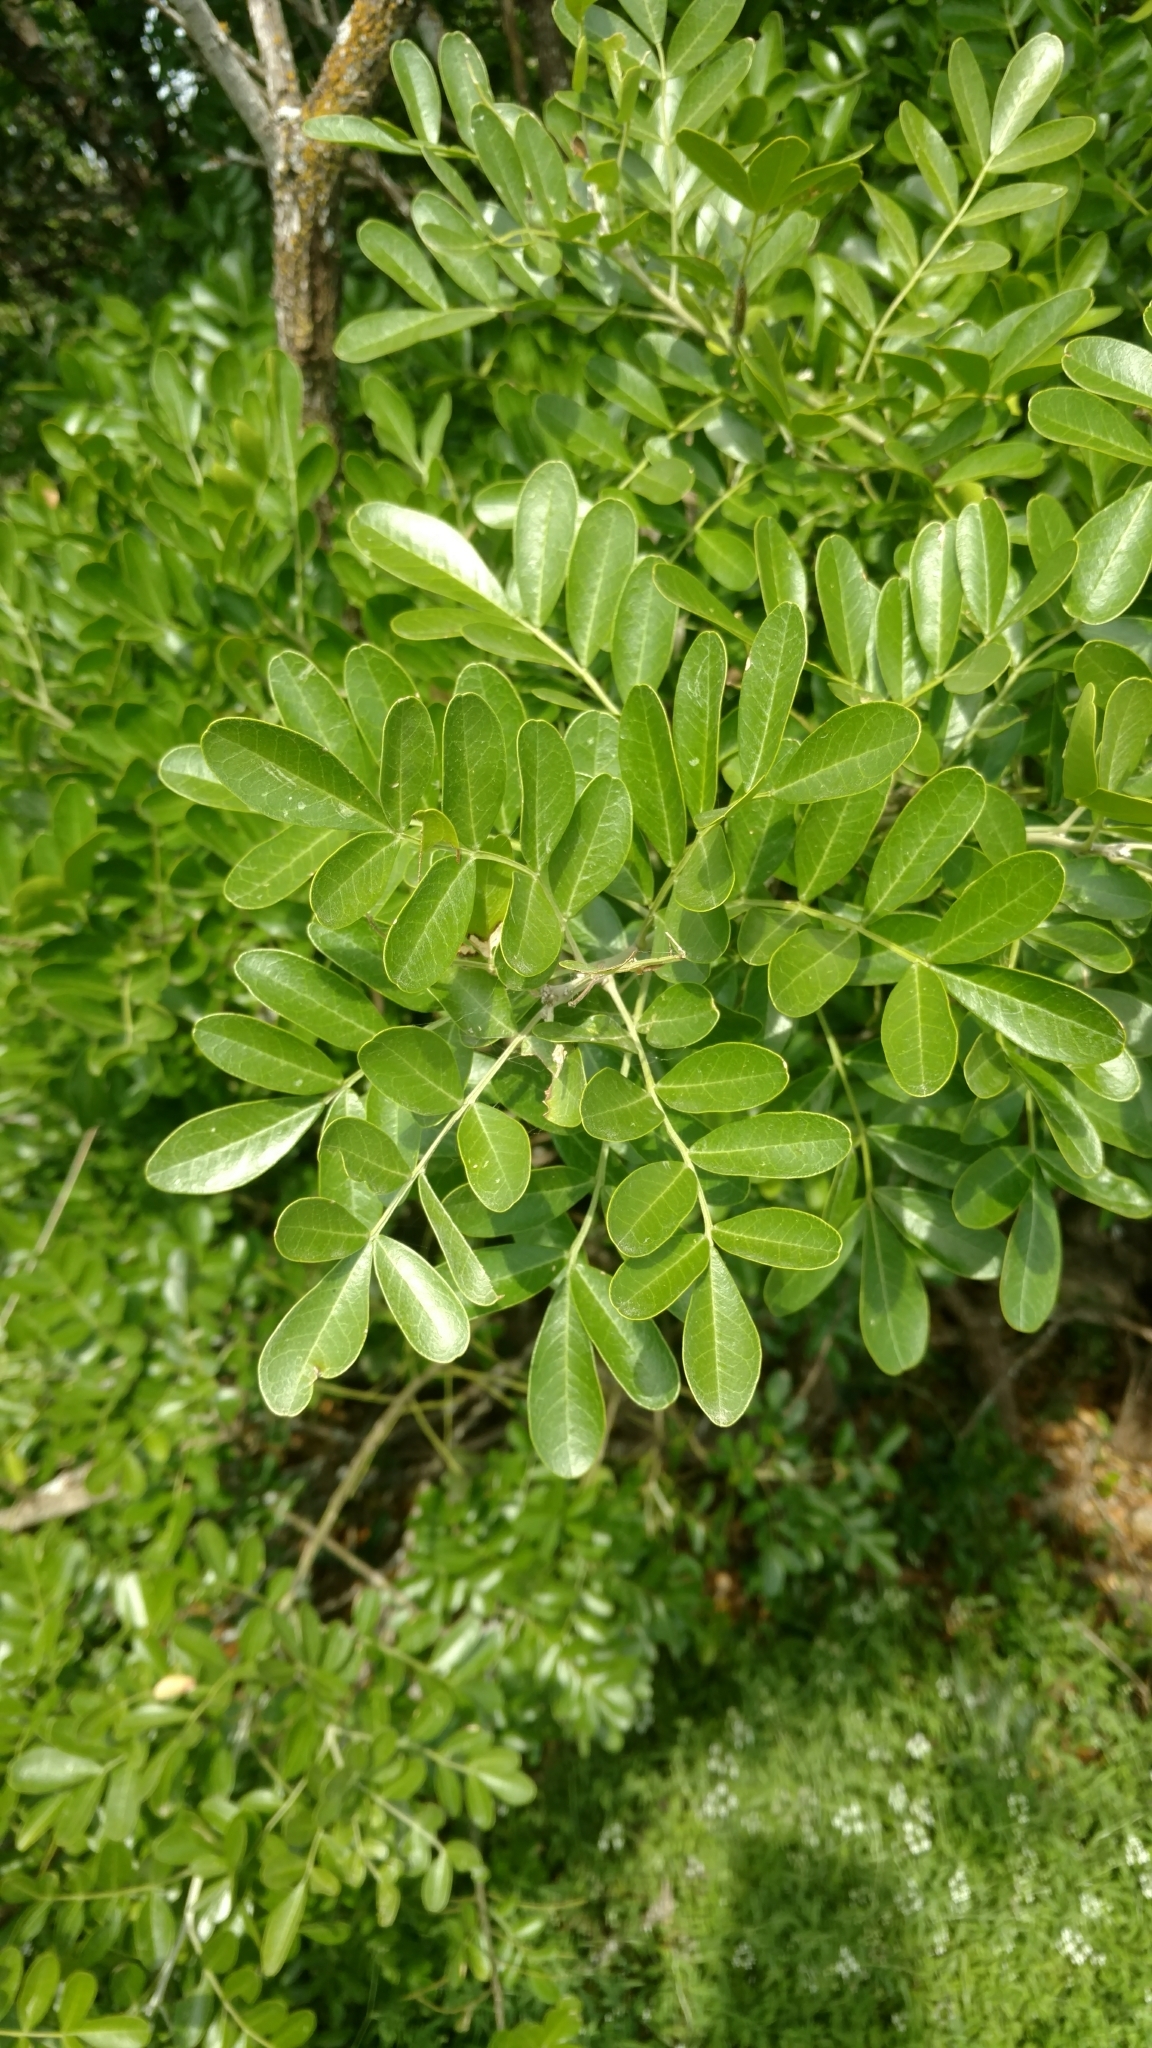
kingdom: Plantae
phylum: Tracheophyta
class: Magnoliopsida
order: Fabales
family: Fabaceae
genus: Dermatophyllum
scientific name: Dermatophyllum secundiflorum
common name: Texas-mountain-laurel
